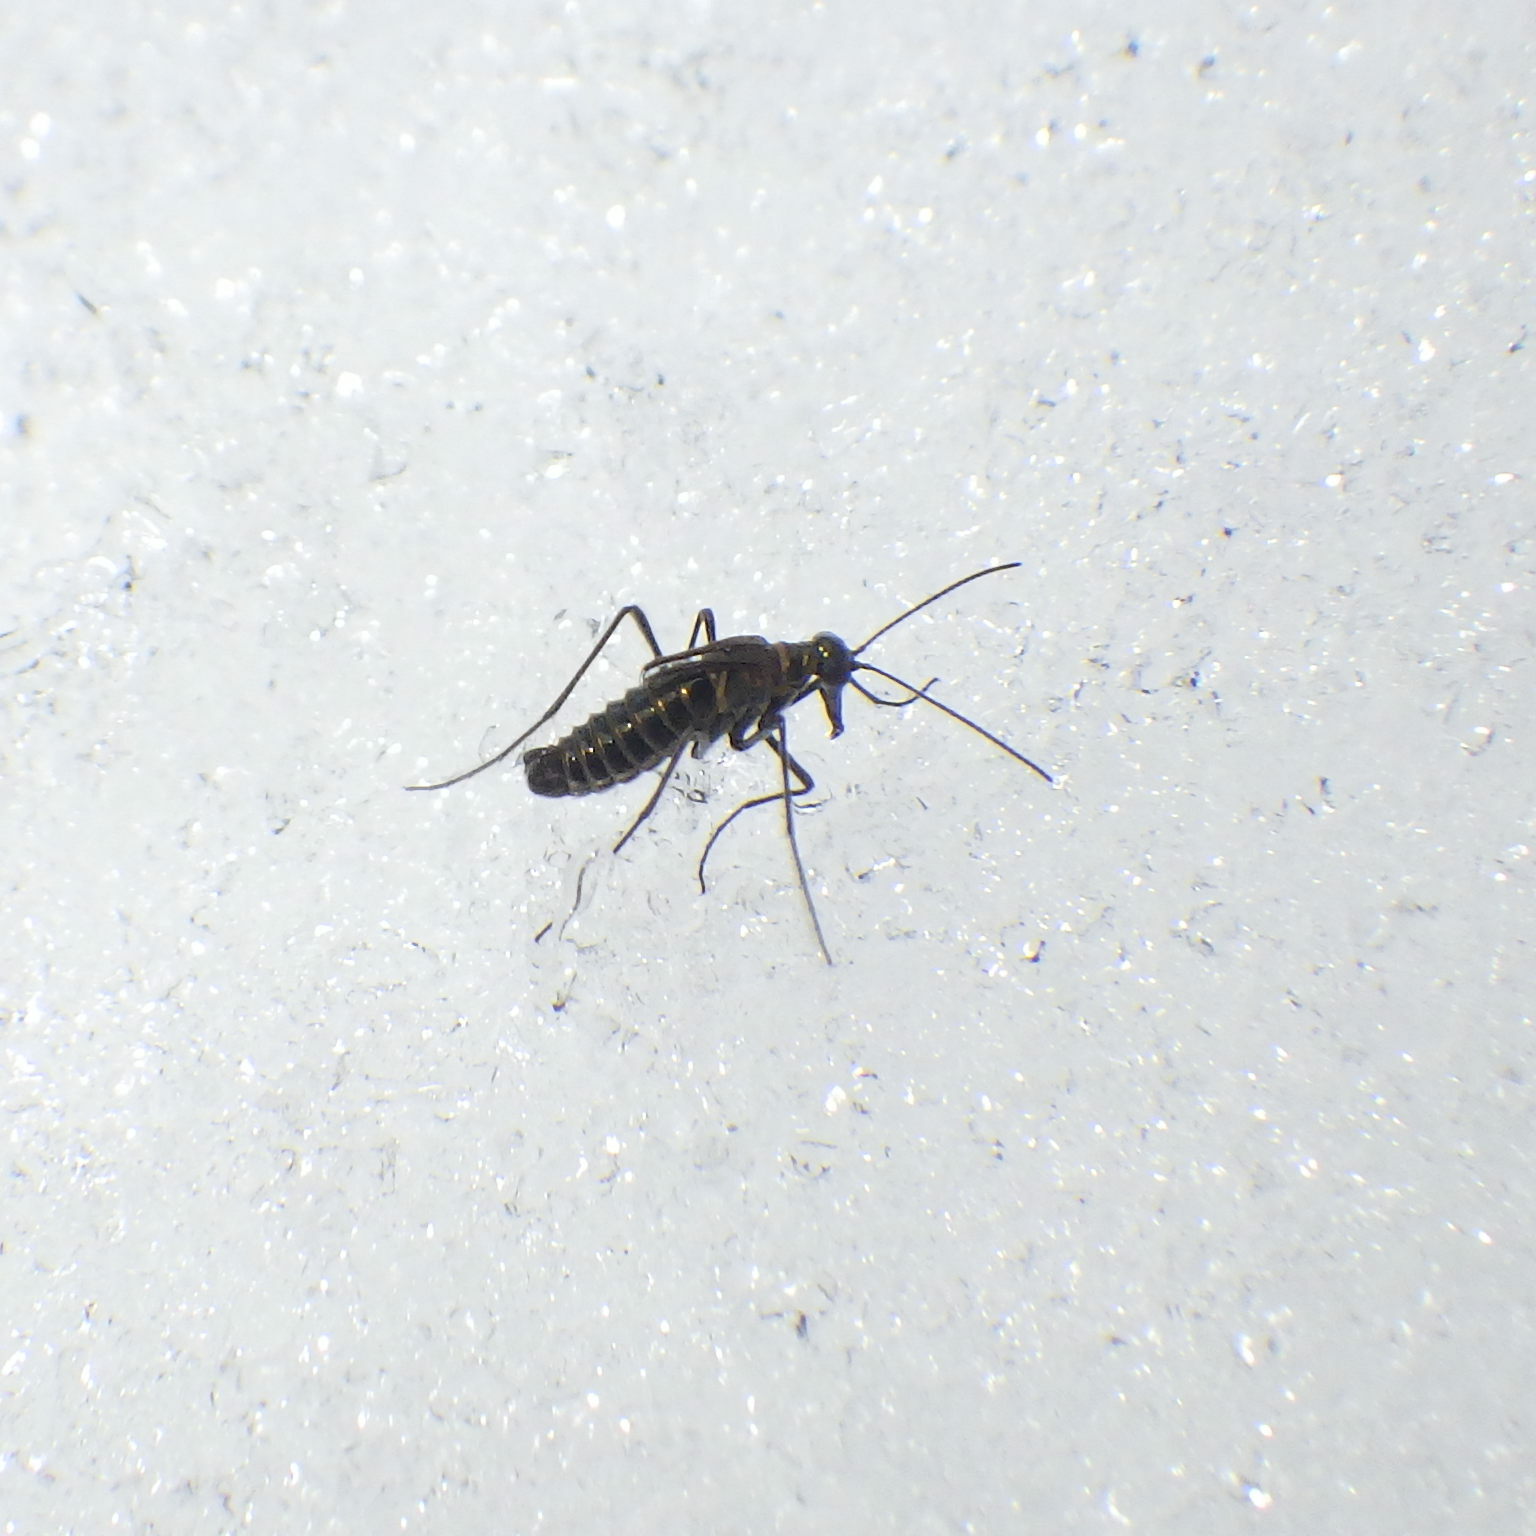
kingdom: Animalia
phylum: Arthropoda
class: Insecta
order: Mecoptera
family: Boreidae
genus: Boreus
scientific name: Boreus brumalis
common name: Mid-winter boreus
